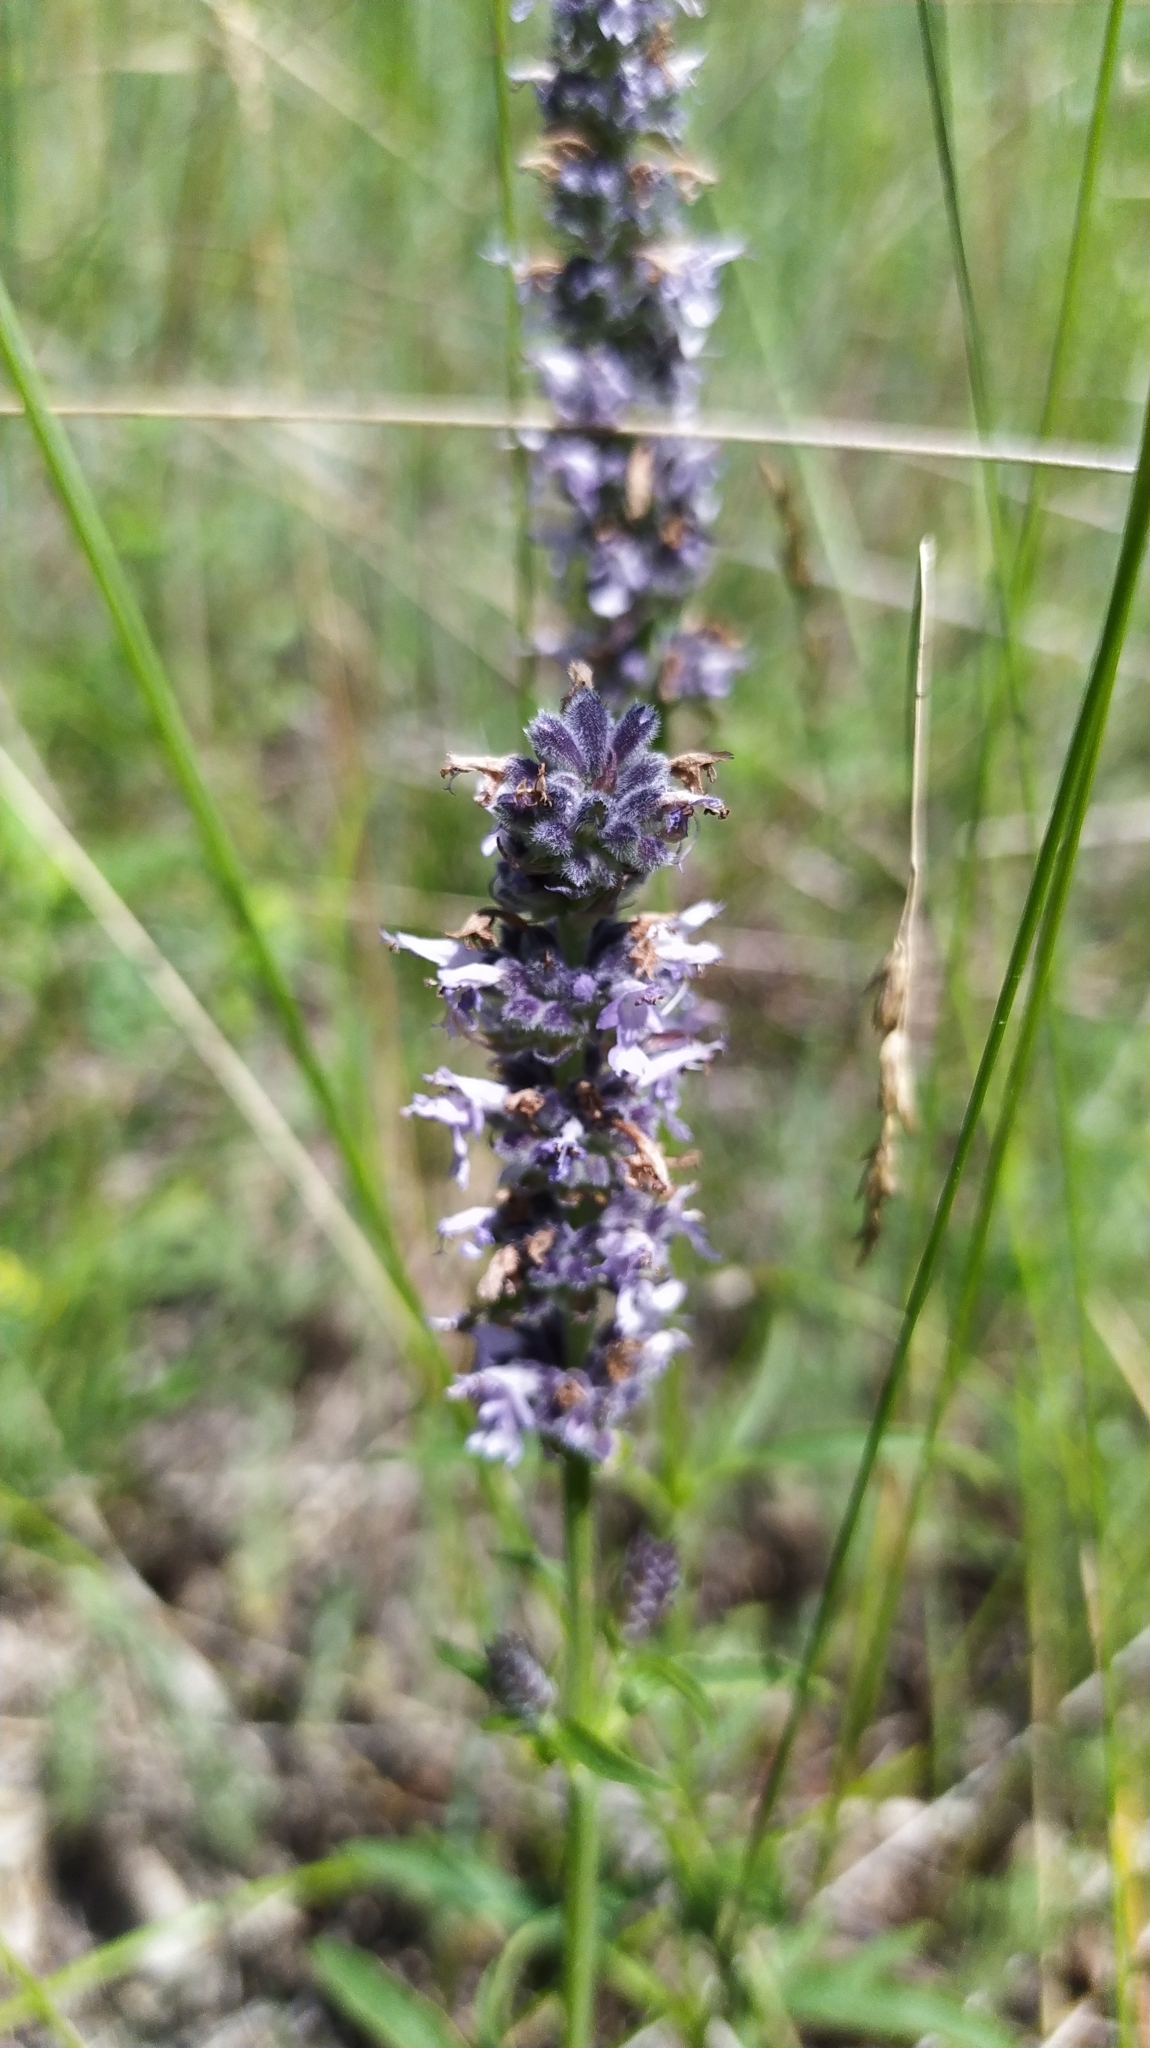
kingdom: Plantae
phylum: Tracheophyta
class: Magnoliopsida
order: Lamiales
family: Lamiaceae
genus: Nepeta
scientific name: Nepeta multifida
